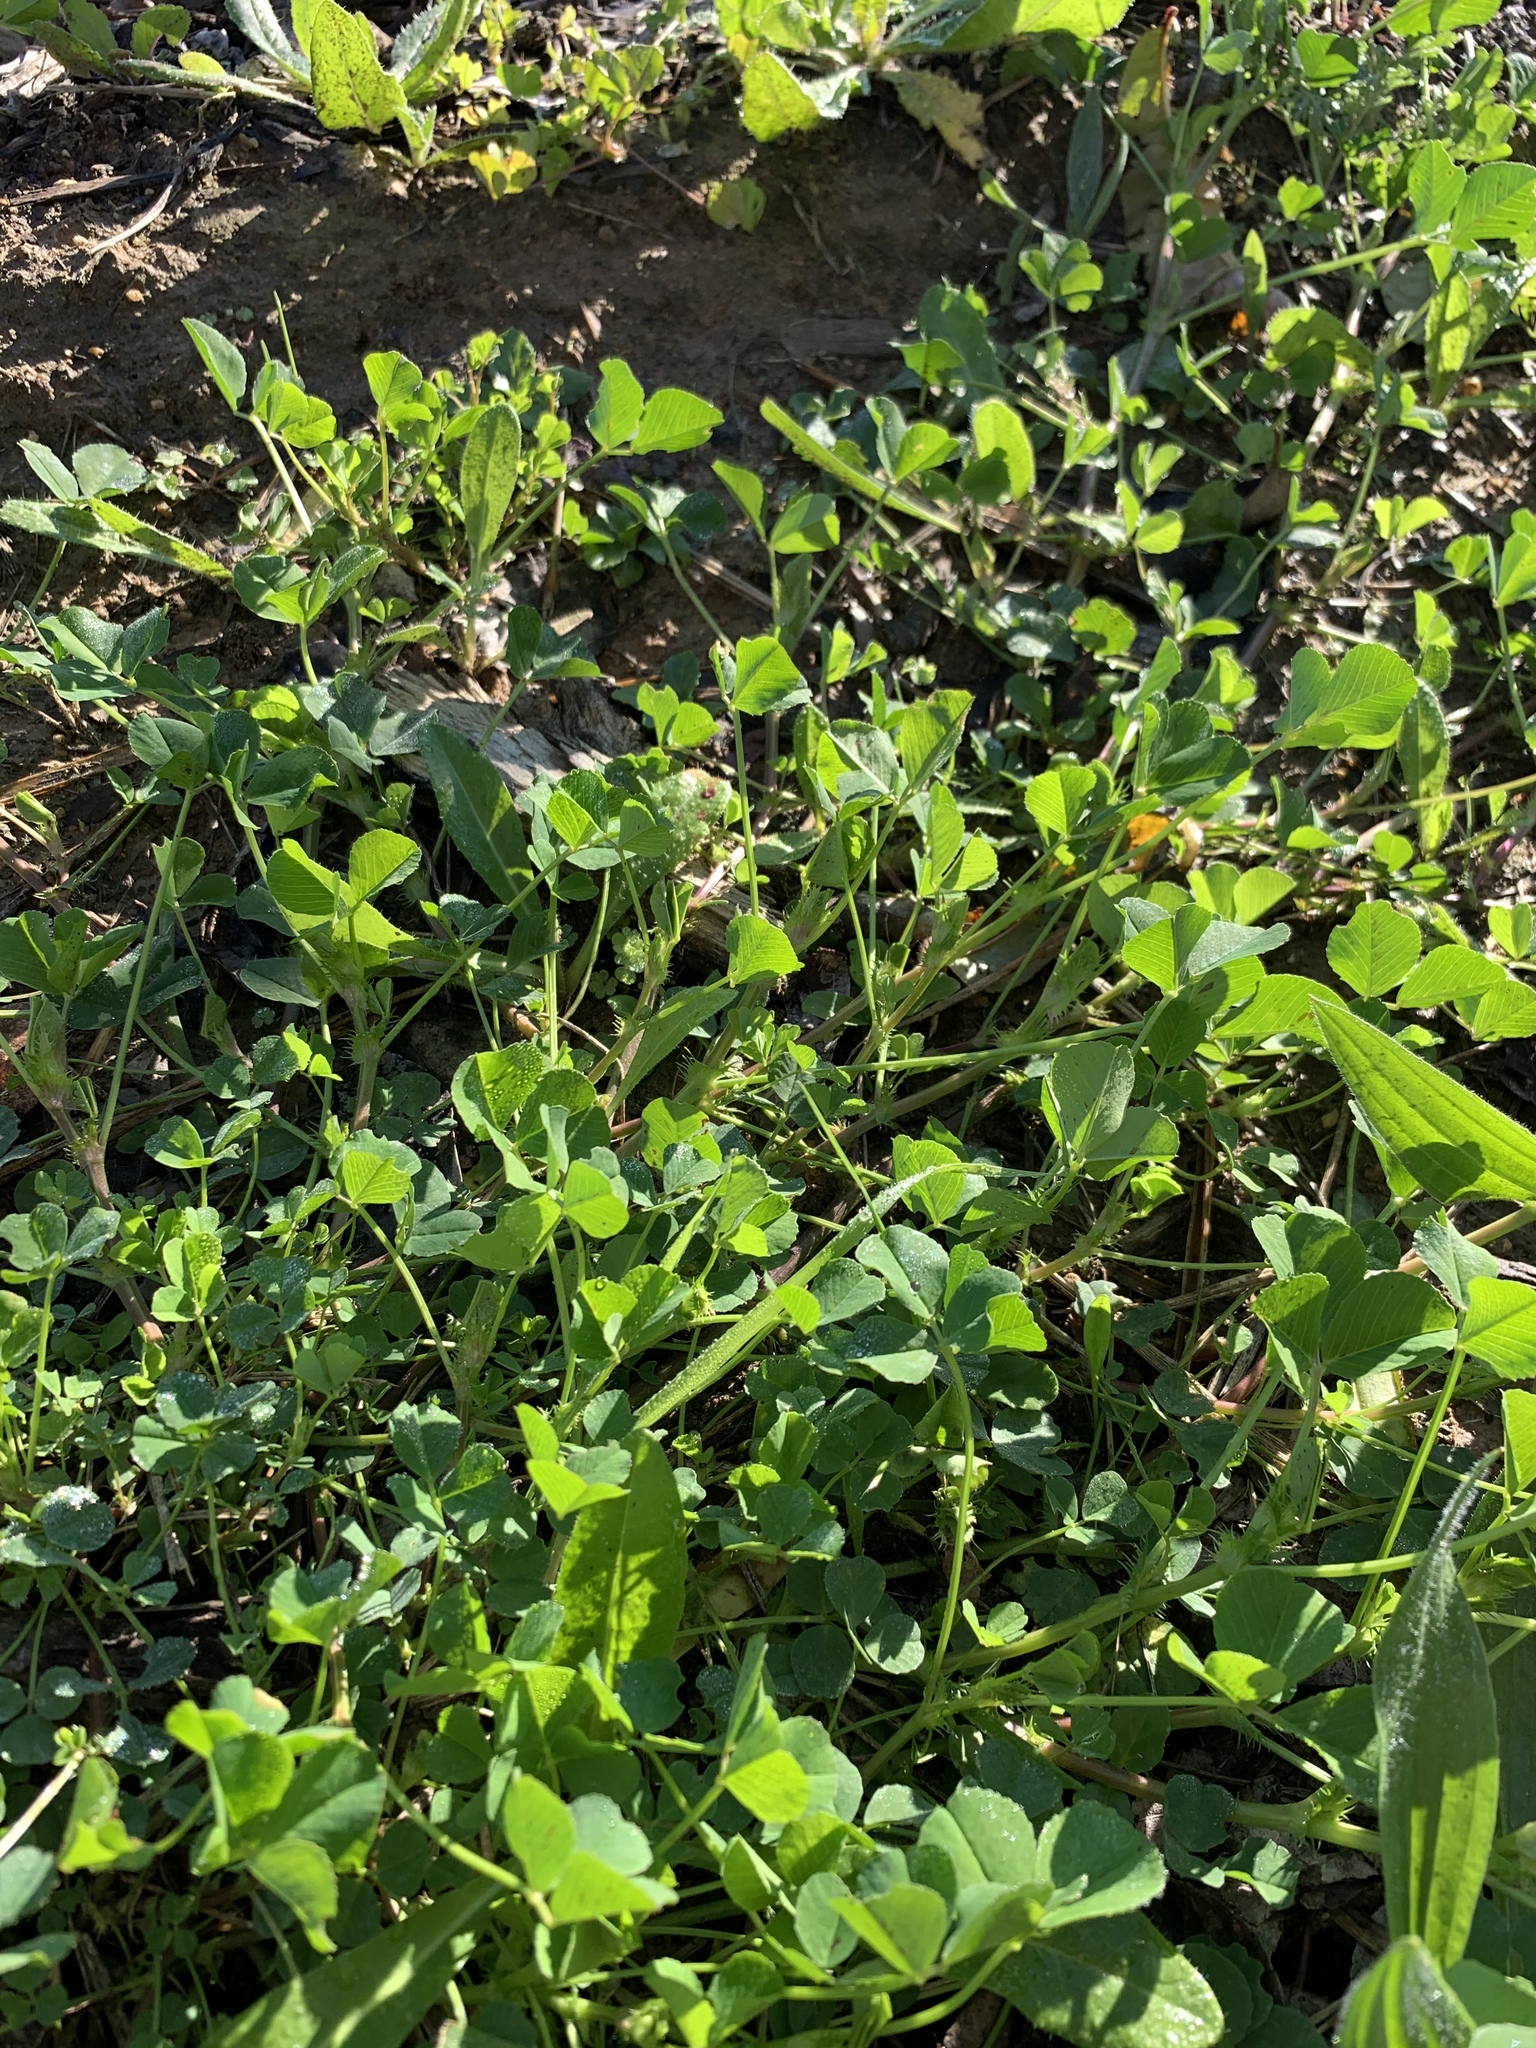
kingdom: Plantae
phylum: Tracheophyta
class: Magnoliopsida
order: Fabales
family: Fabaceae
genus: Medicago
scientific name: Medicago polymorpha
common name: Burclover
